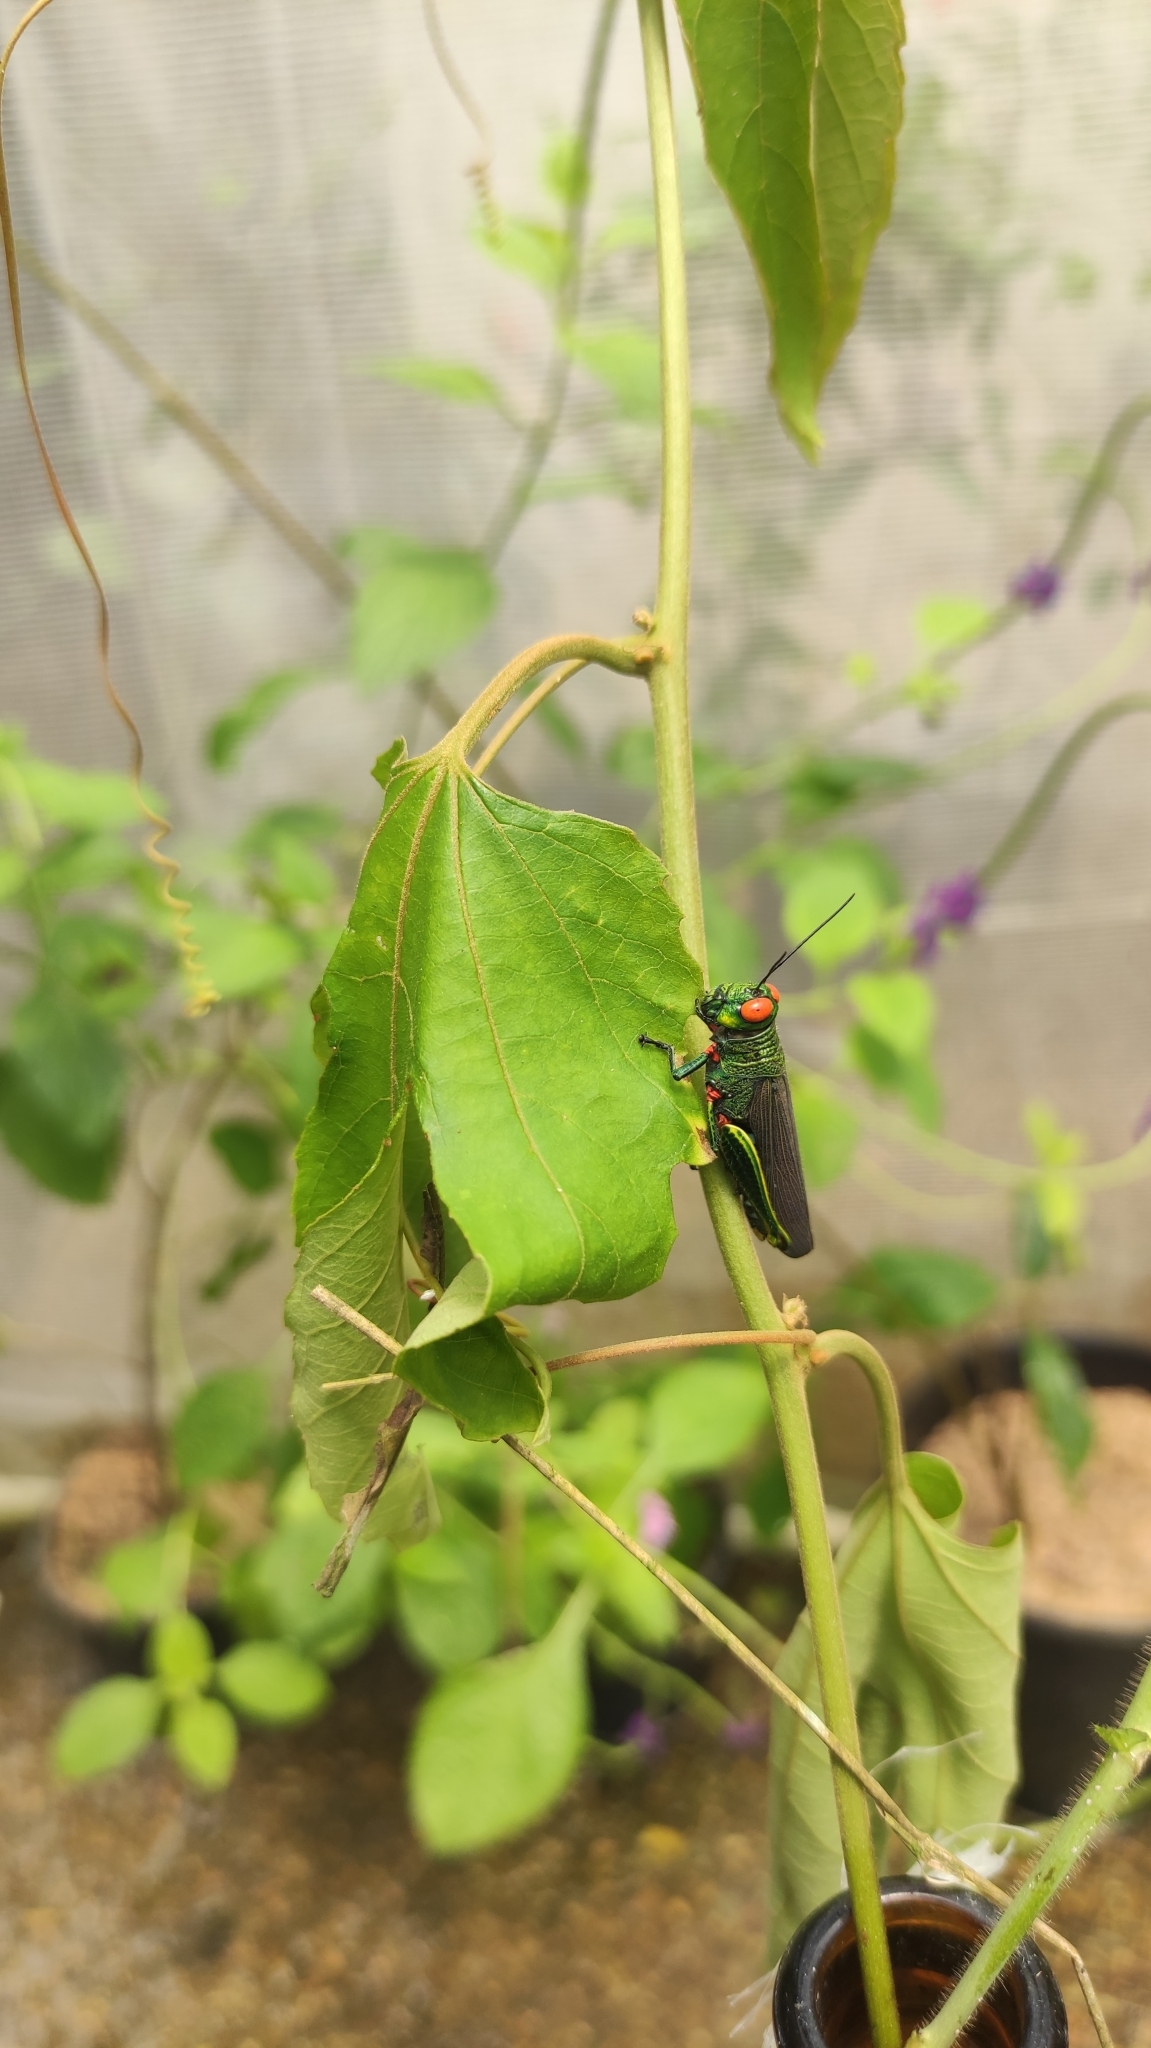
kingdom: Animalia
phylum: Arthropoda
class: Insecta
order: Orthoptera
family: Acrididae
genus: Coscineuta
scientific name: Coscineuta coxalis
